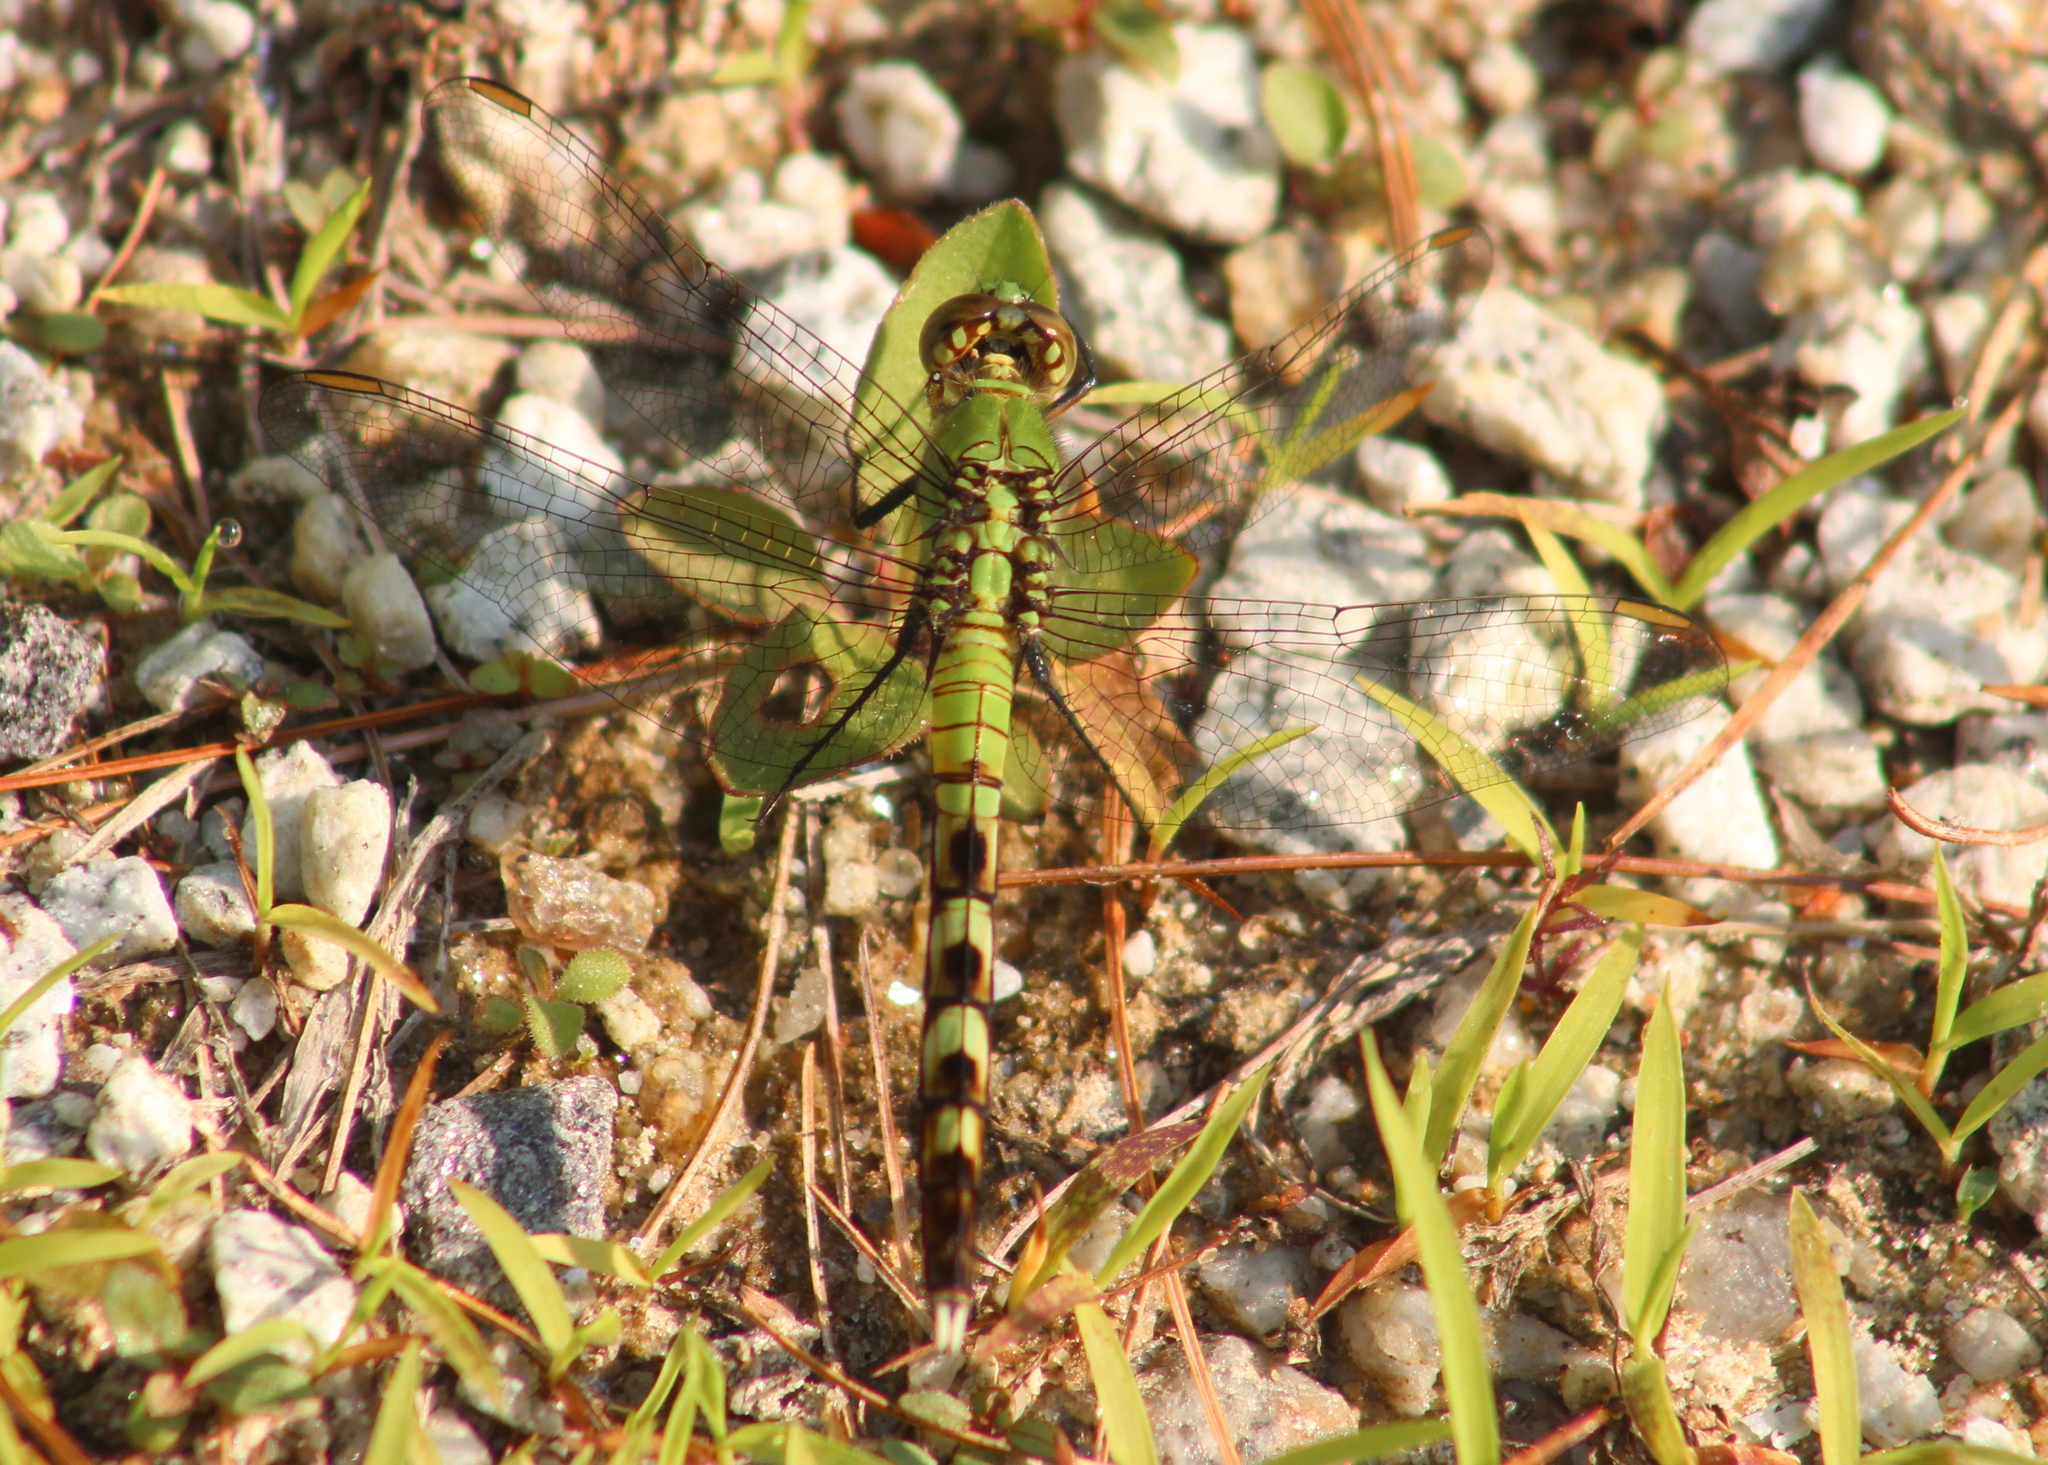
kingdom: Animalia
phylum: Arthropoda
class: Insecta
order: Odonata
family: Libellulidae
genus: Erythemis
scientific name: Erythemis simplicicollis
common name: Eastern pondhawk
